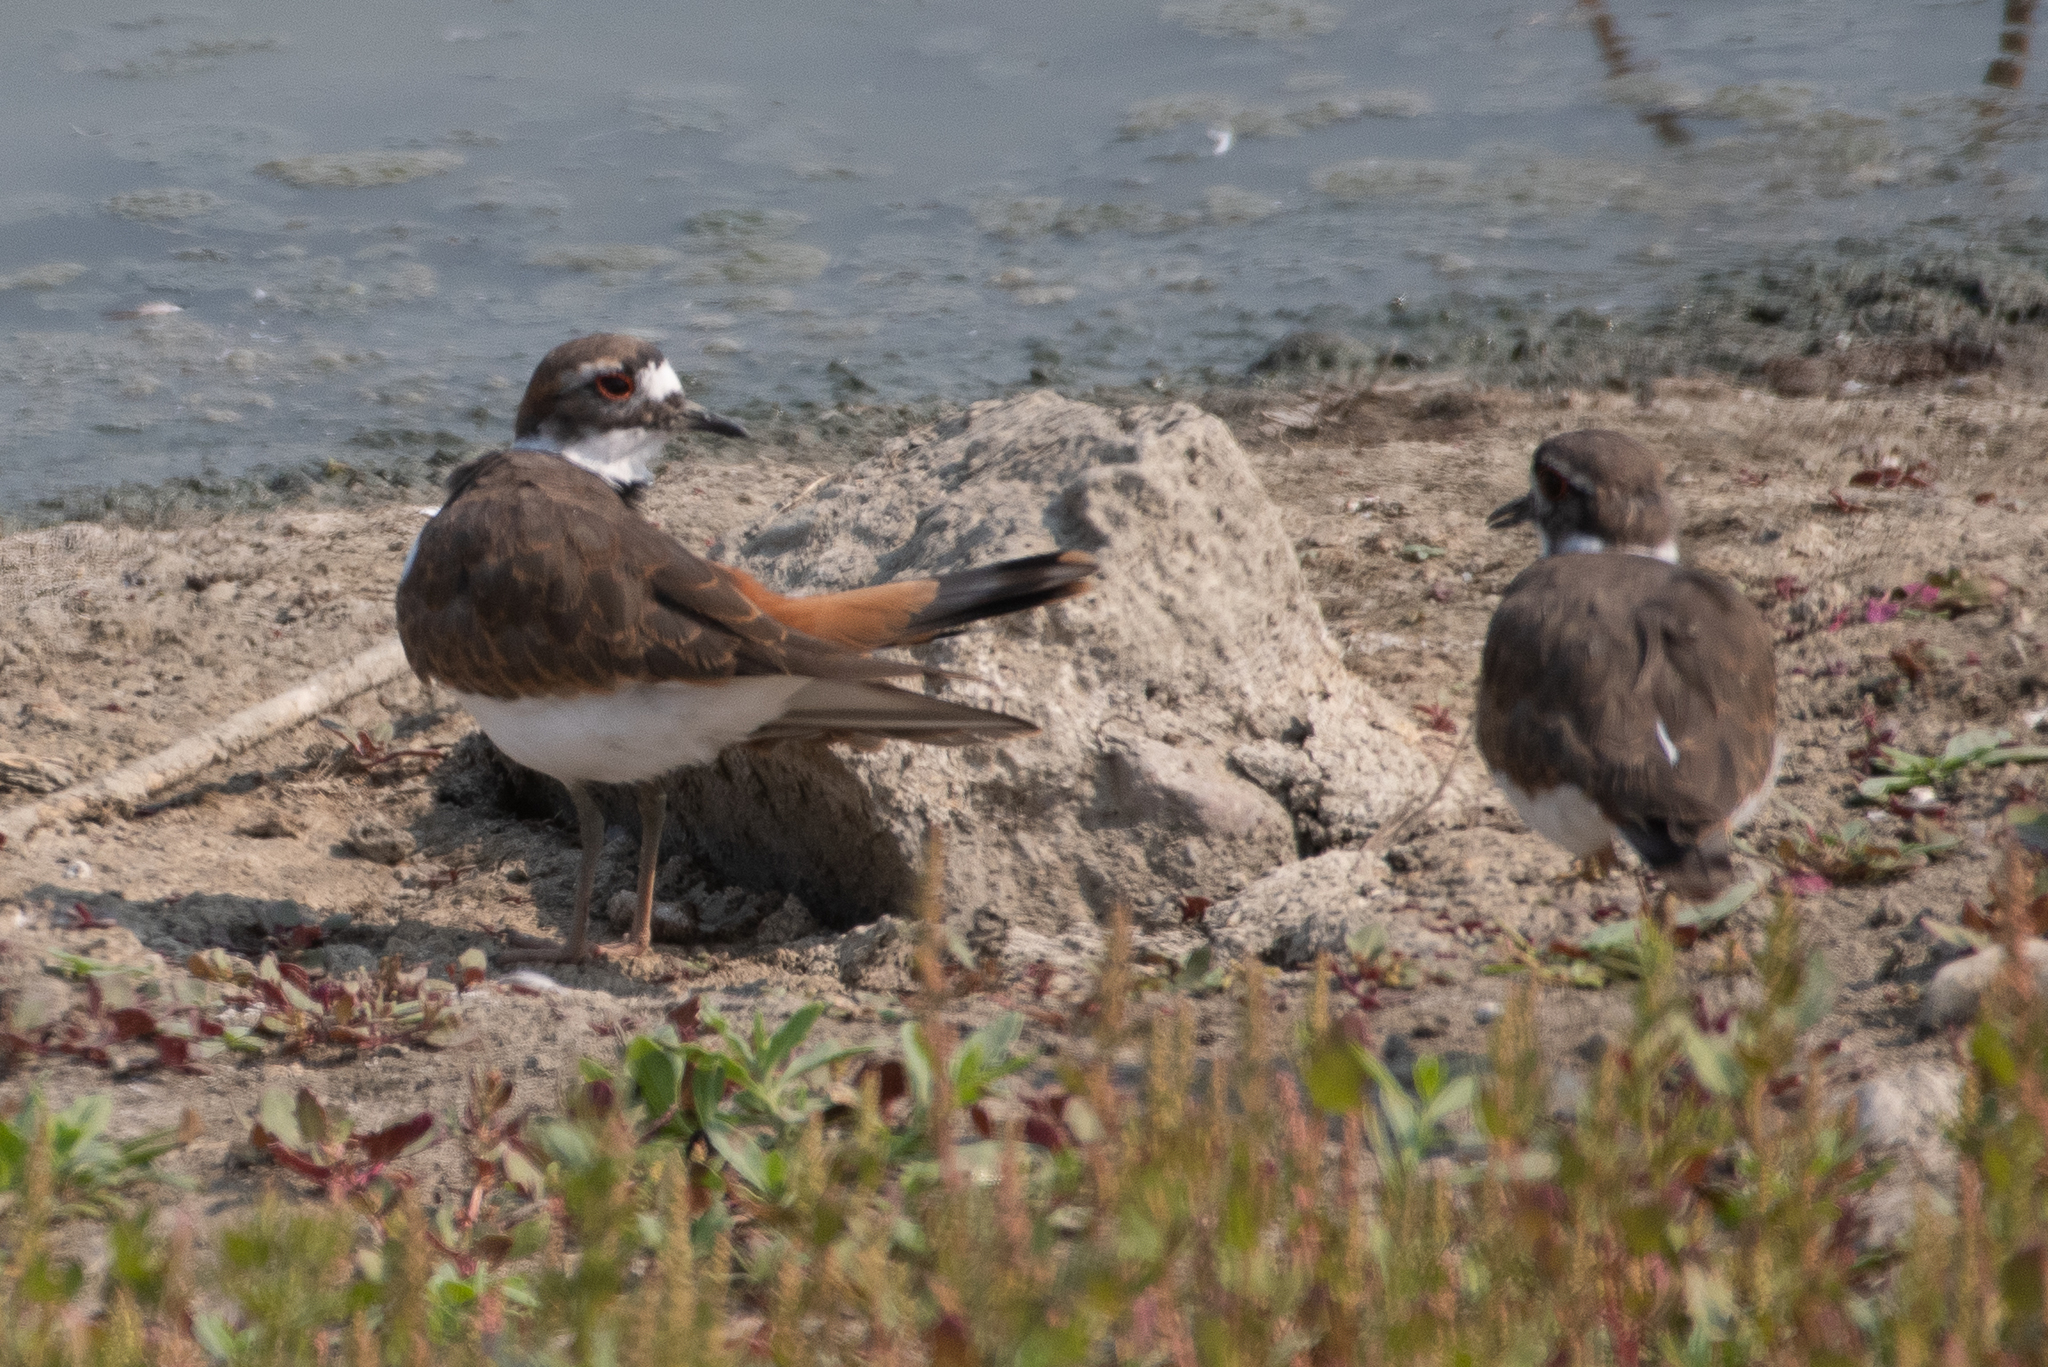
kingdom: Animalia
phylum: Chordata
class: Aves
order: Charadriiformes
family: Charadriidae
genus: Charadrius
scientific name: Charadrius vociferus
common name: Killdeer
